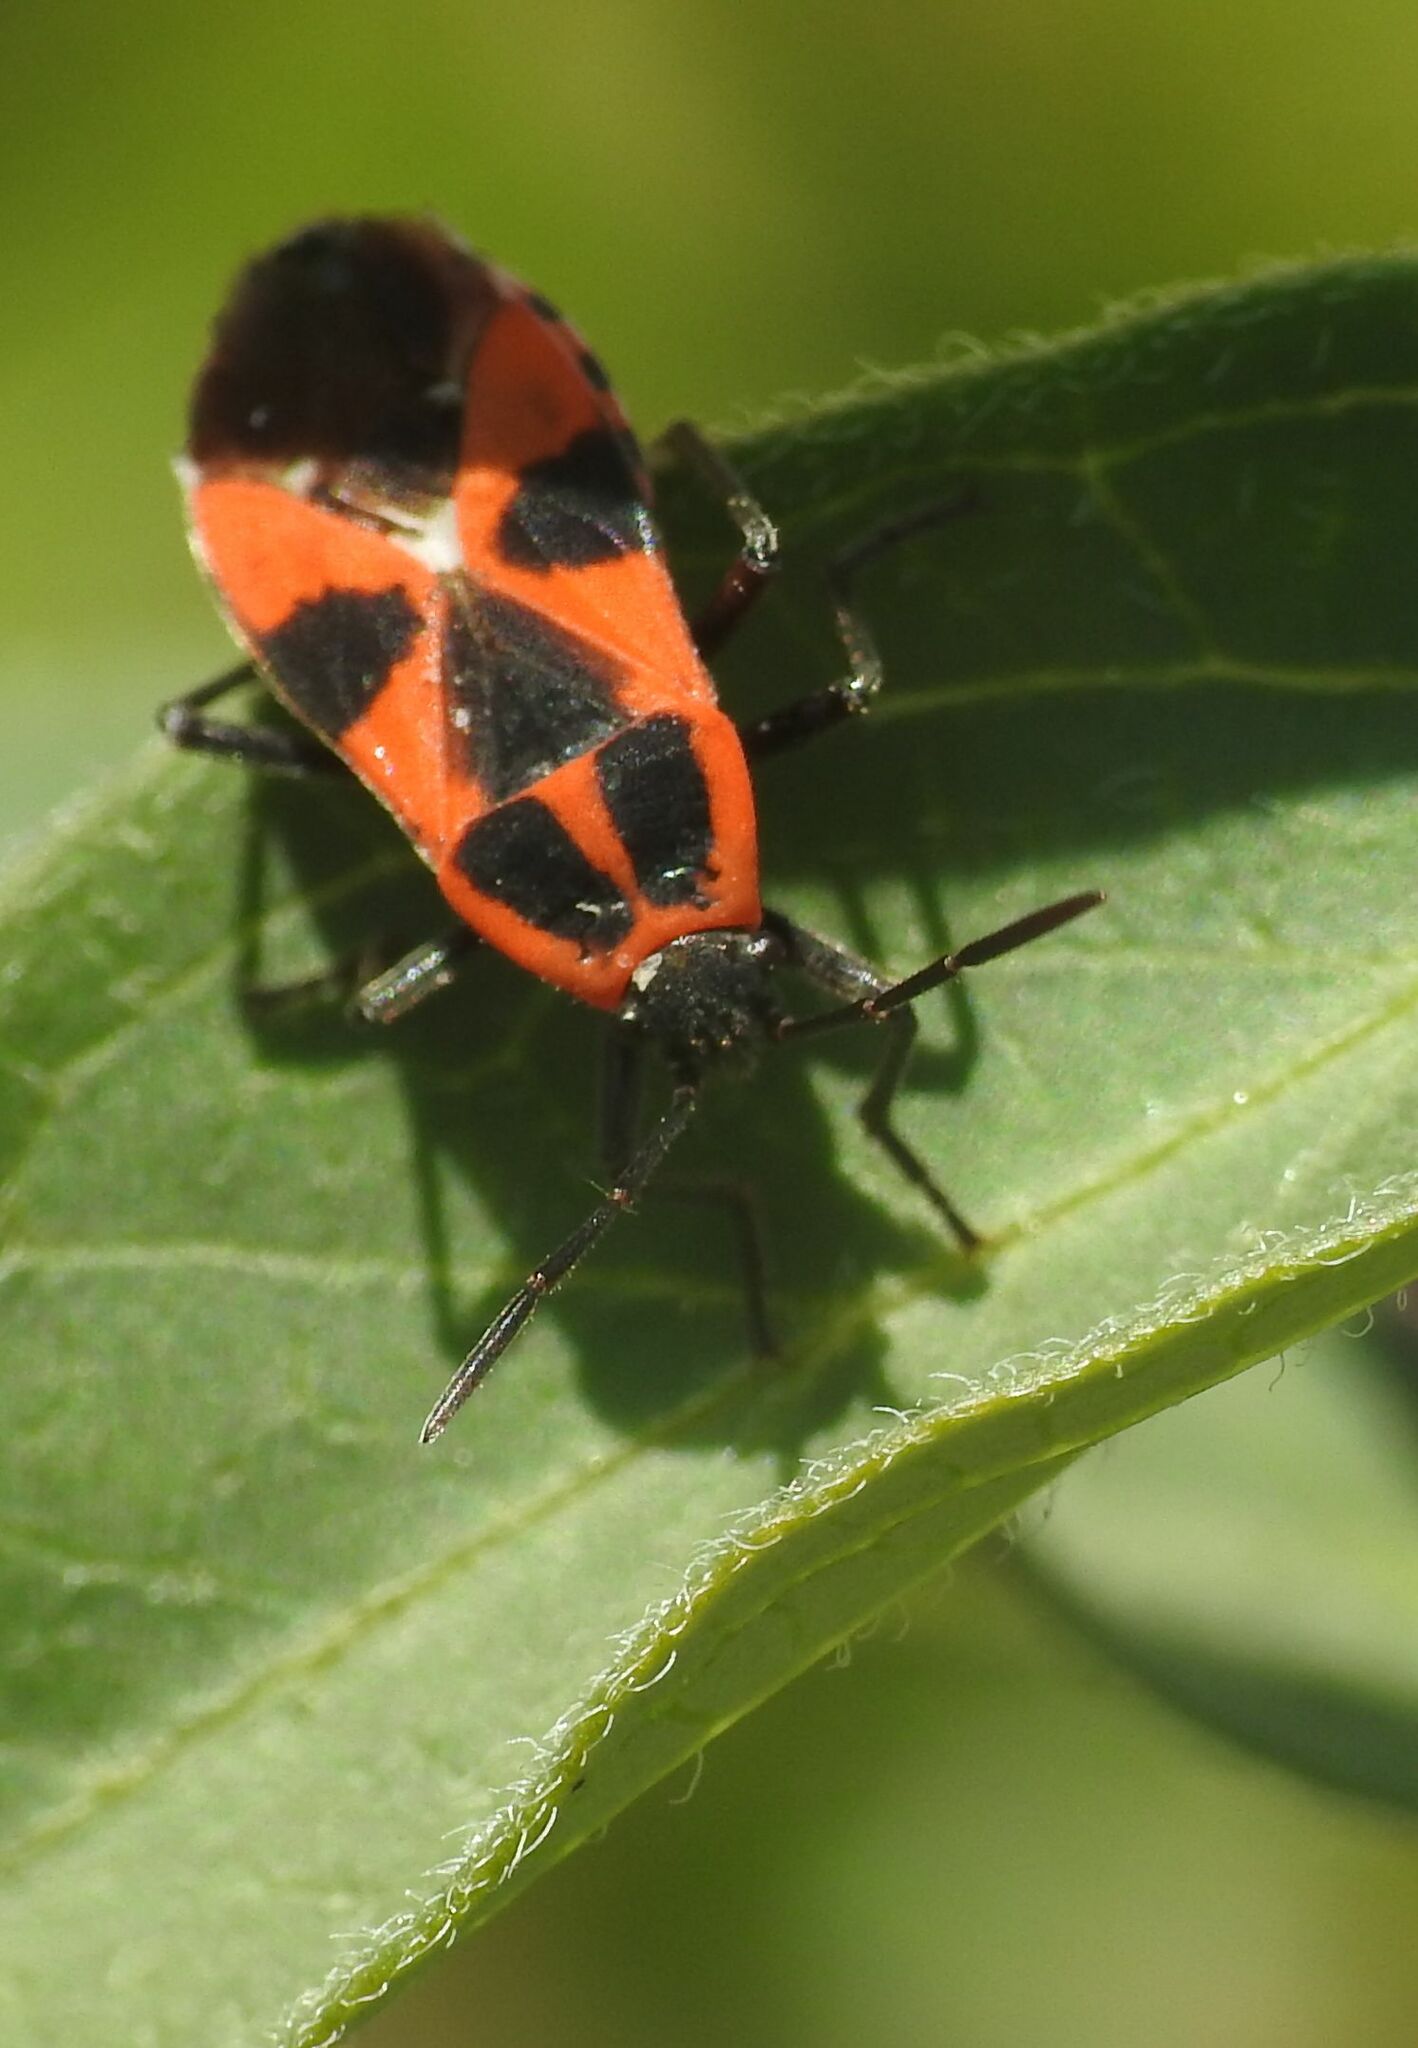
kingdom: Animalia
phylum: Arthropoda
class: Insecta
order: Hemiptera
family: Lygaeidae
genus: Tropidothorax
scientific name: Tropidothorax leucopterus
